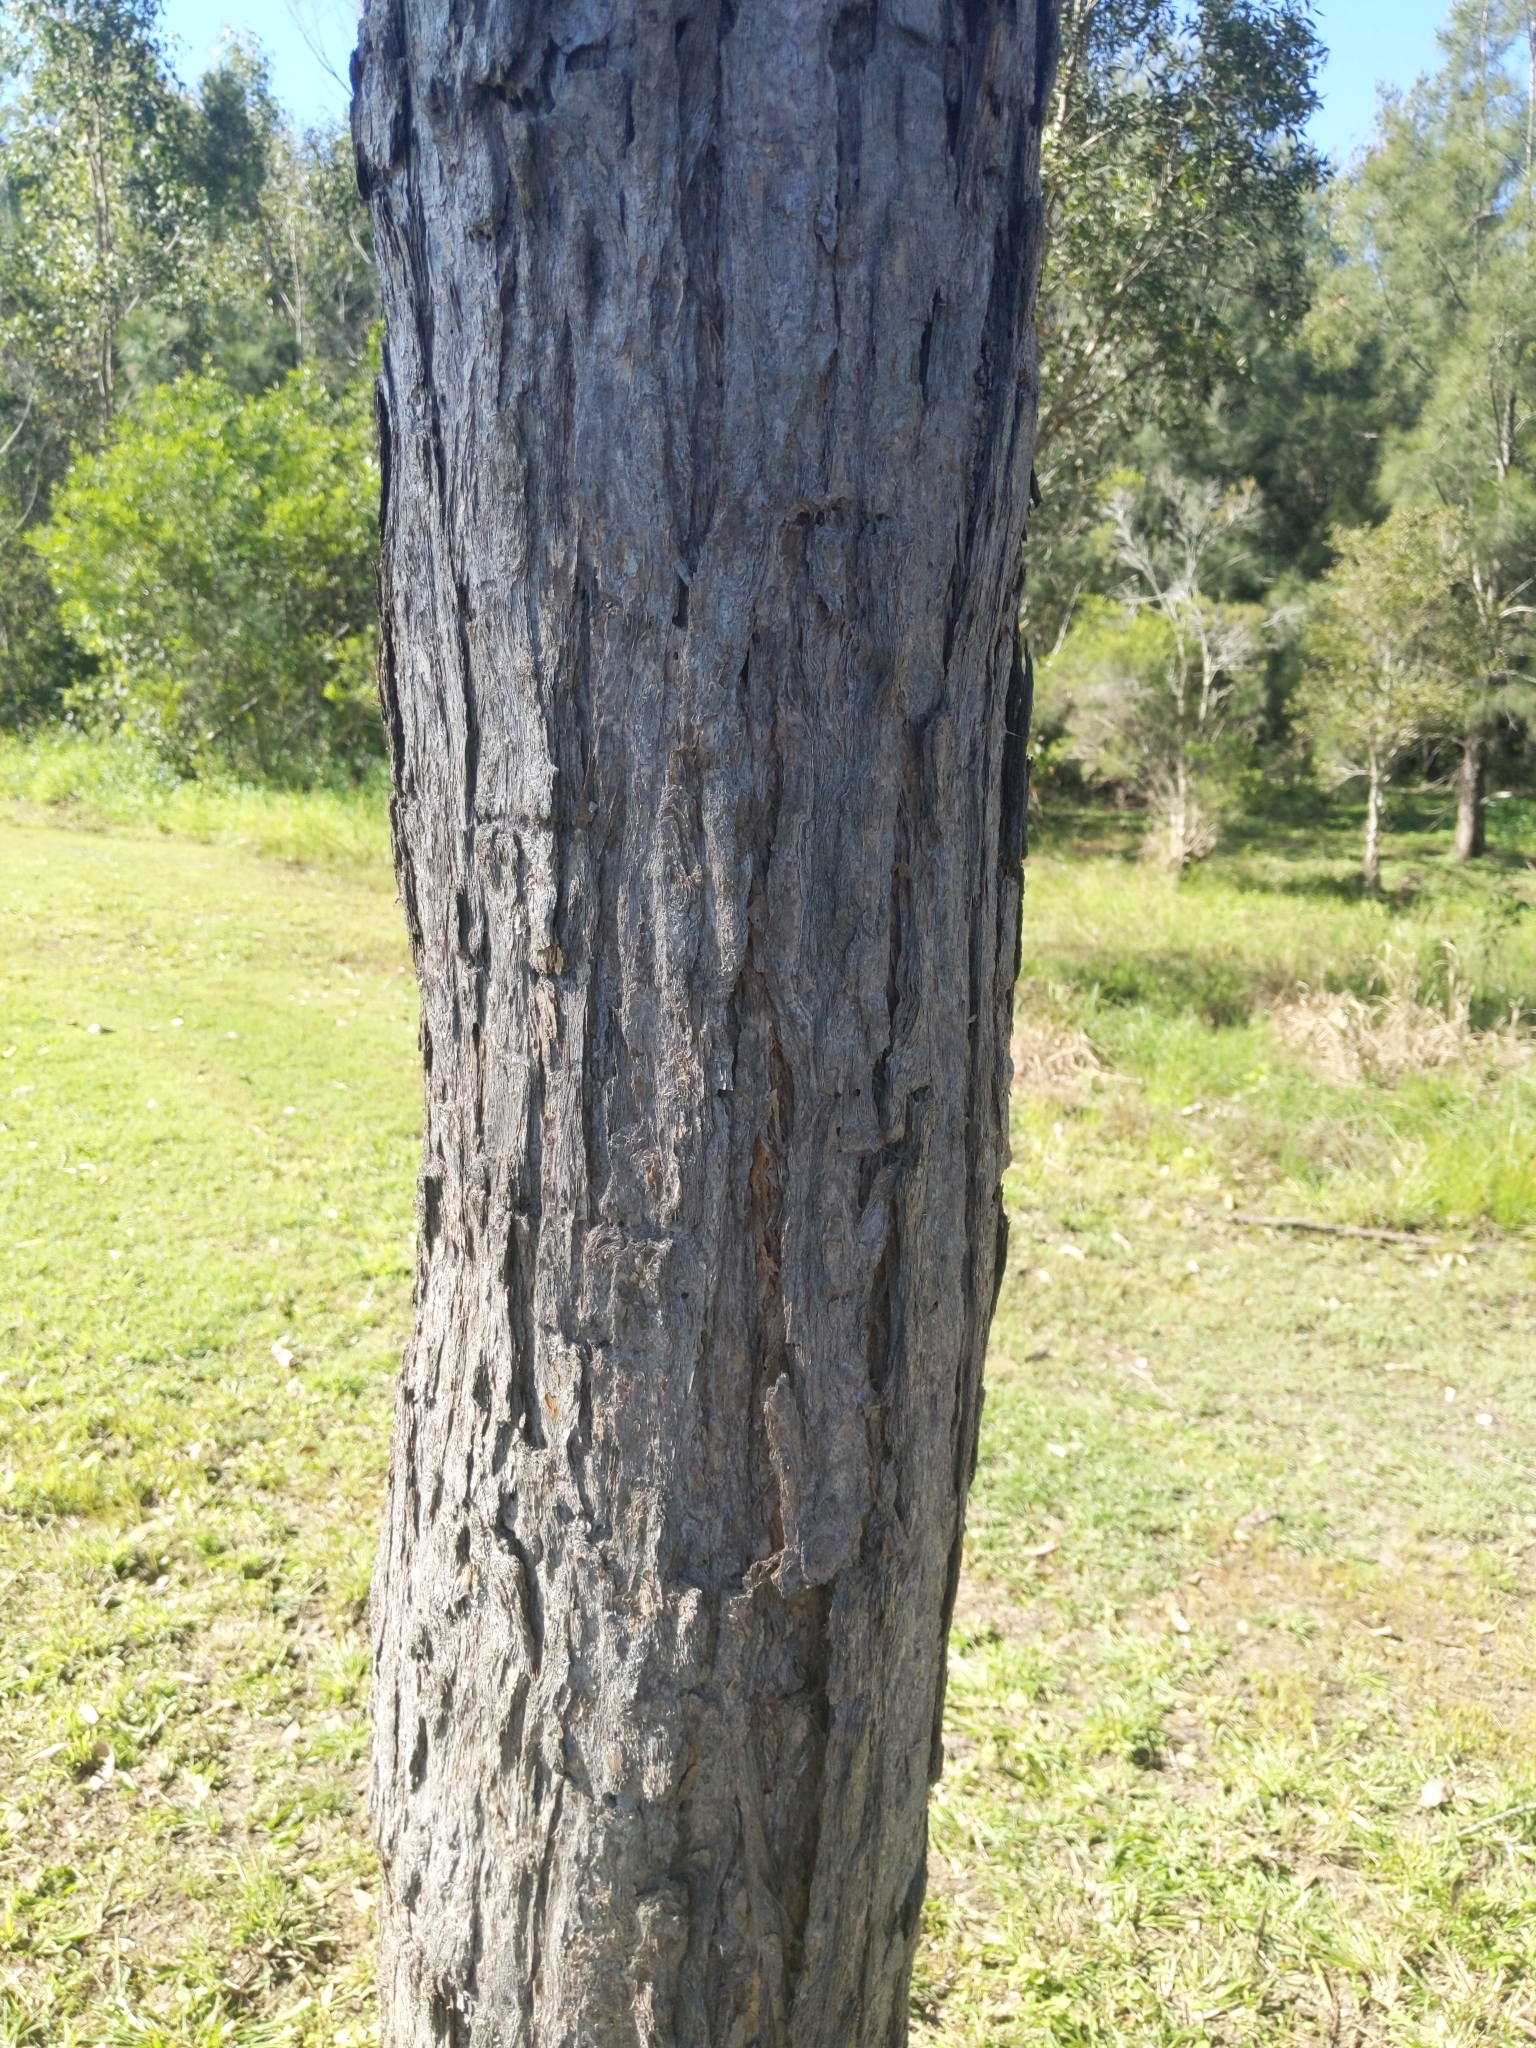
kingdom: Plantae
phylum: Tracheophyta
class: Magnoliopsida
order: Myrtales
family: Myrtaceae
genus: Lophostemon
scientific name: Lophostemon suaveolens
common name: Paperbark-mahogany
